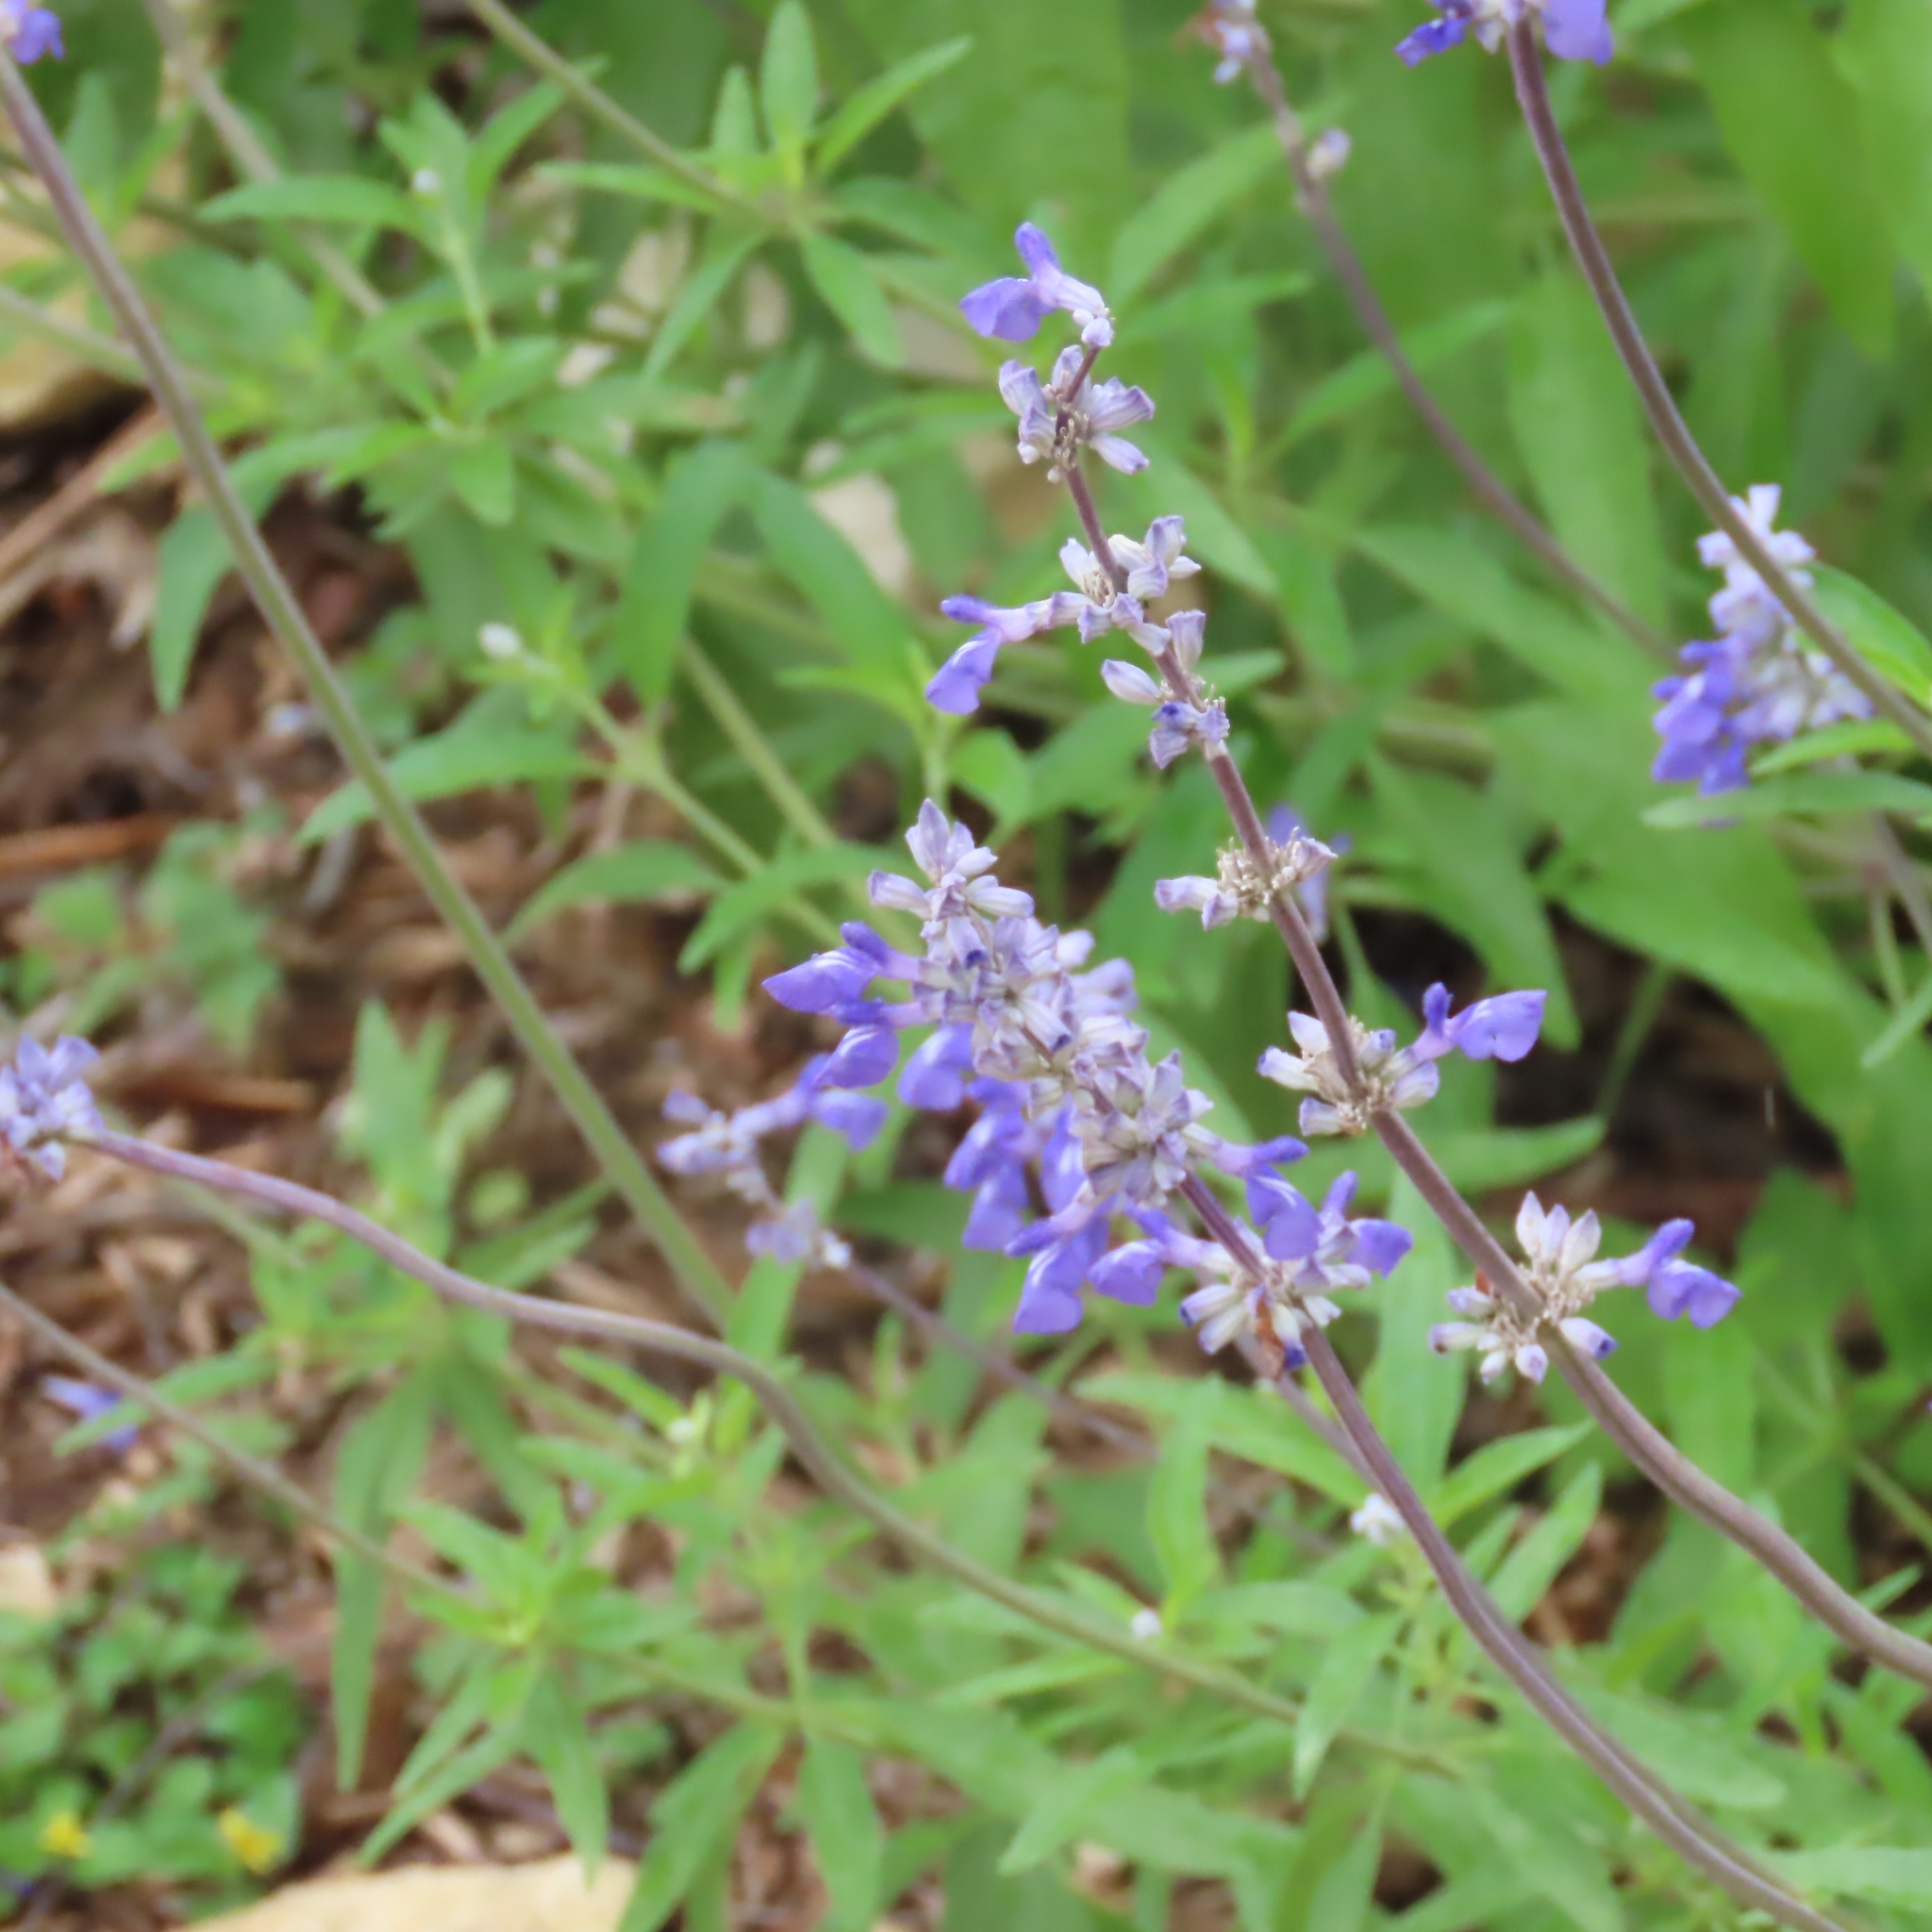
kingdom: Plantae
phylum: Tracheophyta
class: Magnoliopsida
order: Lamiales
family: Lamiaceae
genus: Salvia
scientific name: Salvia farinacea
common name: Mealy sage
